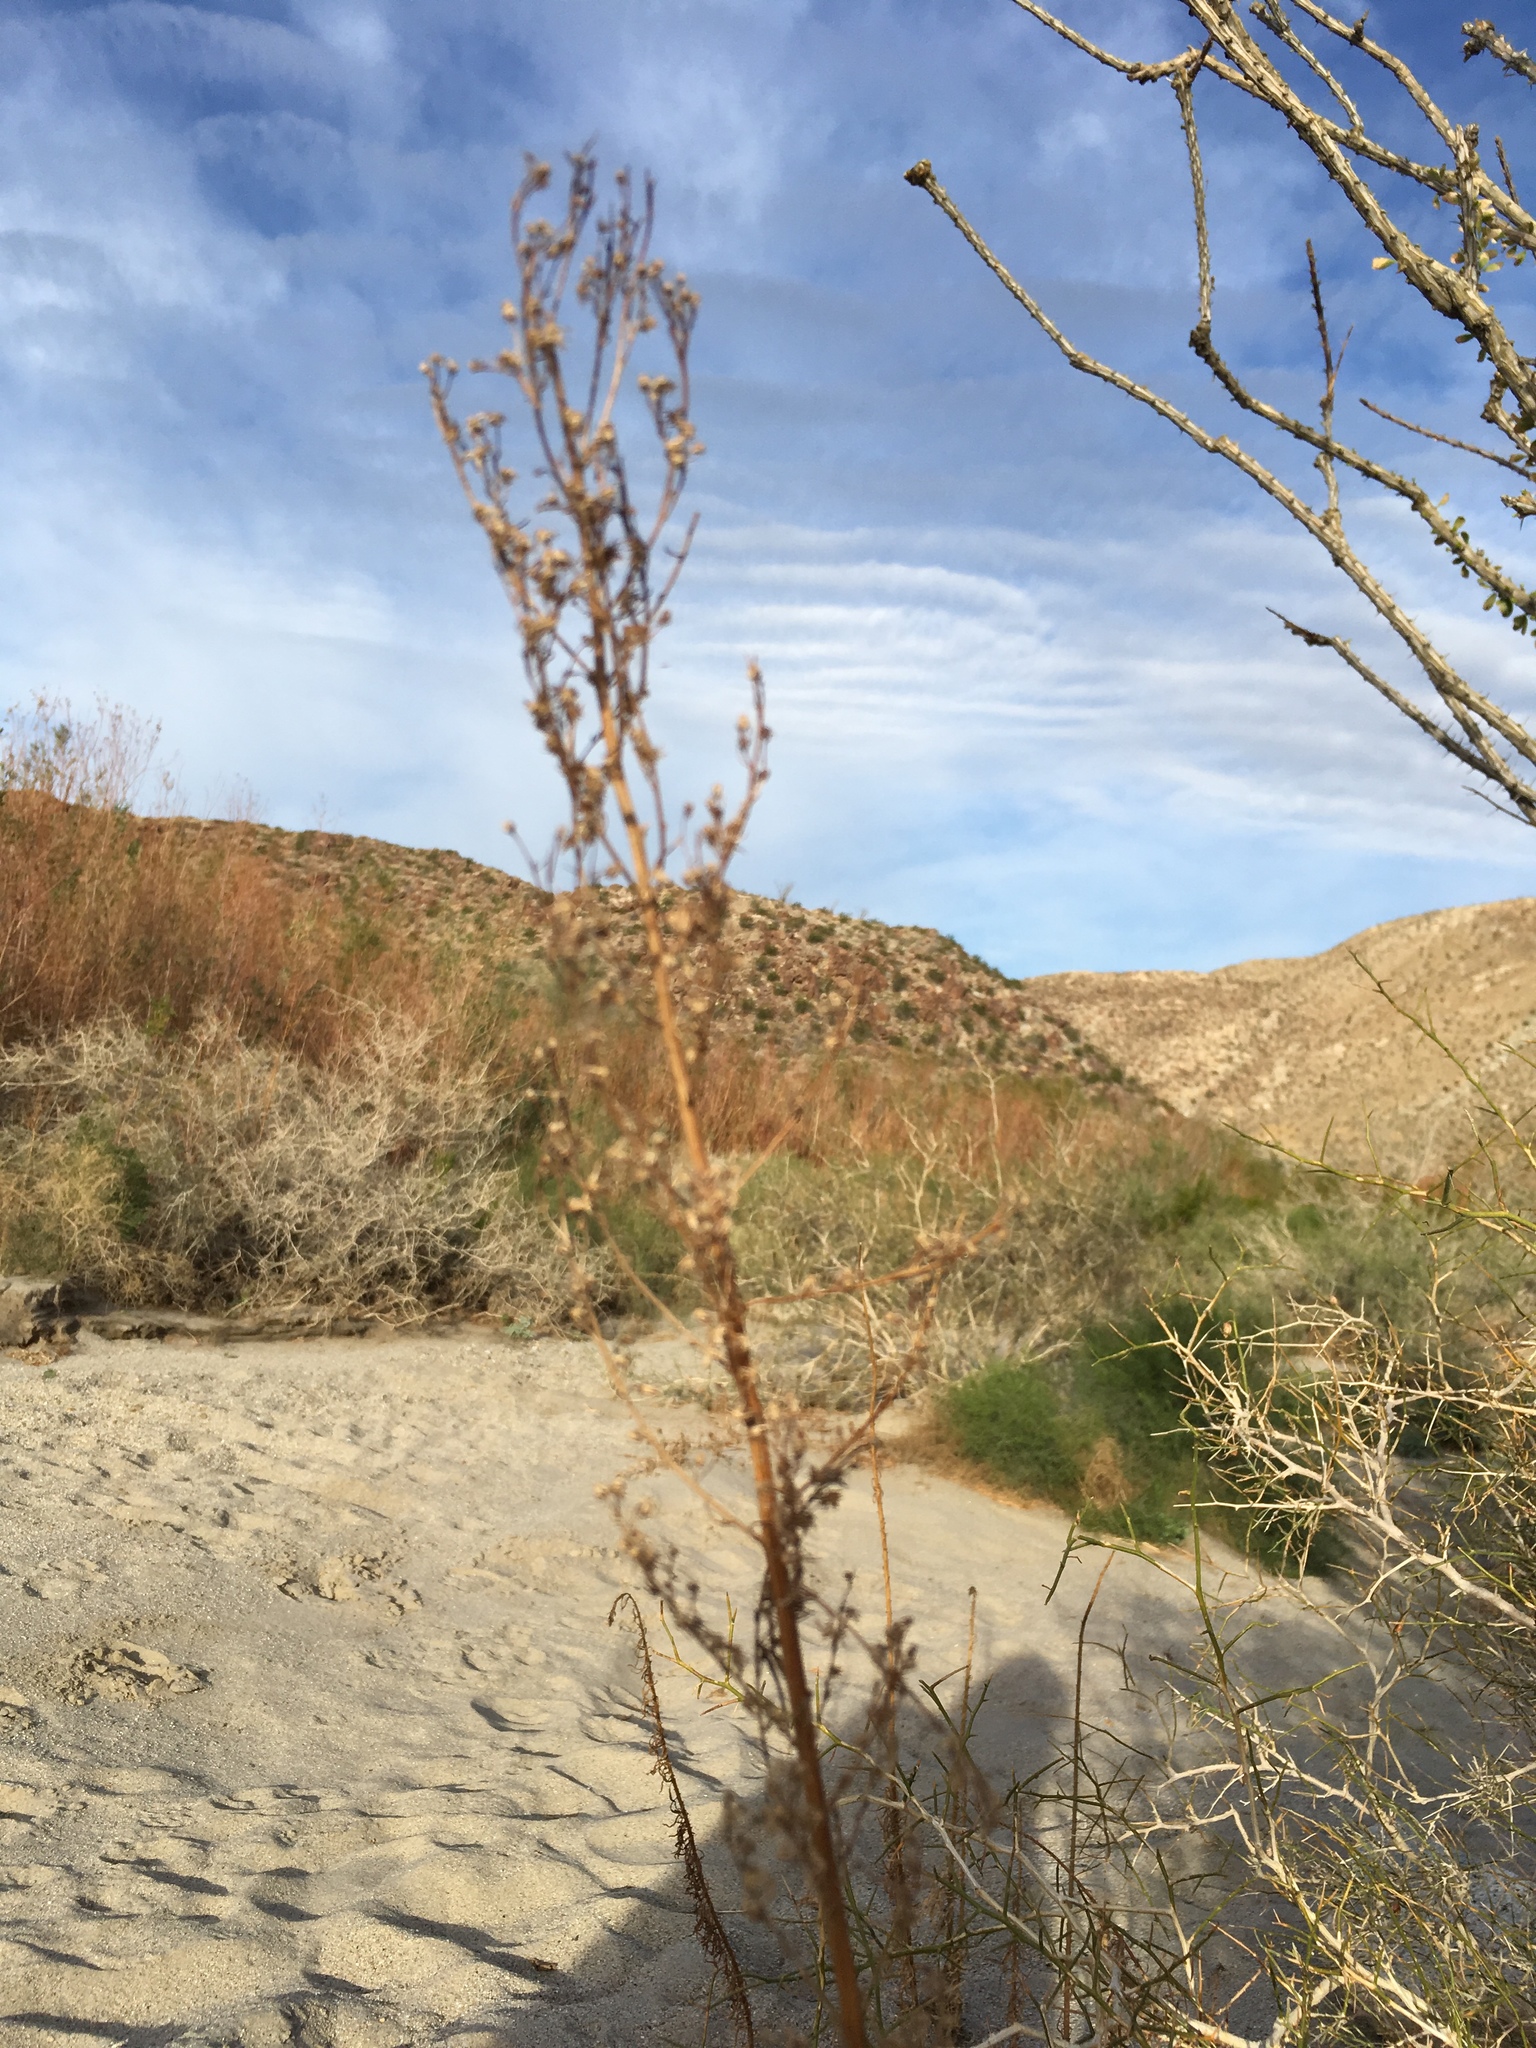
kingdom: Plantae
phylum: Tracheophyta
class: Magnoliopsida
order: Asterales
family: Asteraceae
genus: Erigeron
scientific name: Erigeron canadensis
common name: Canadian fleabane
